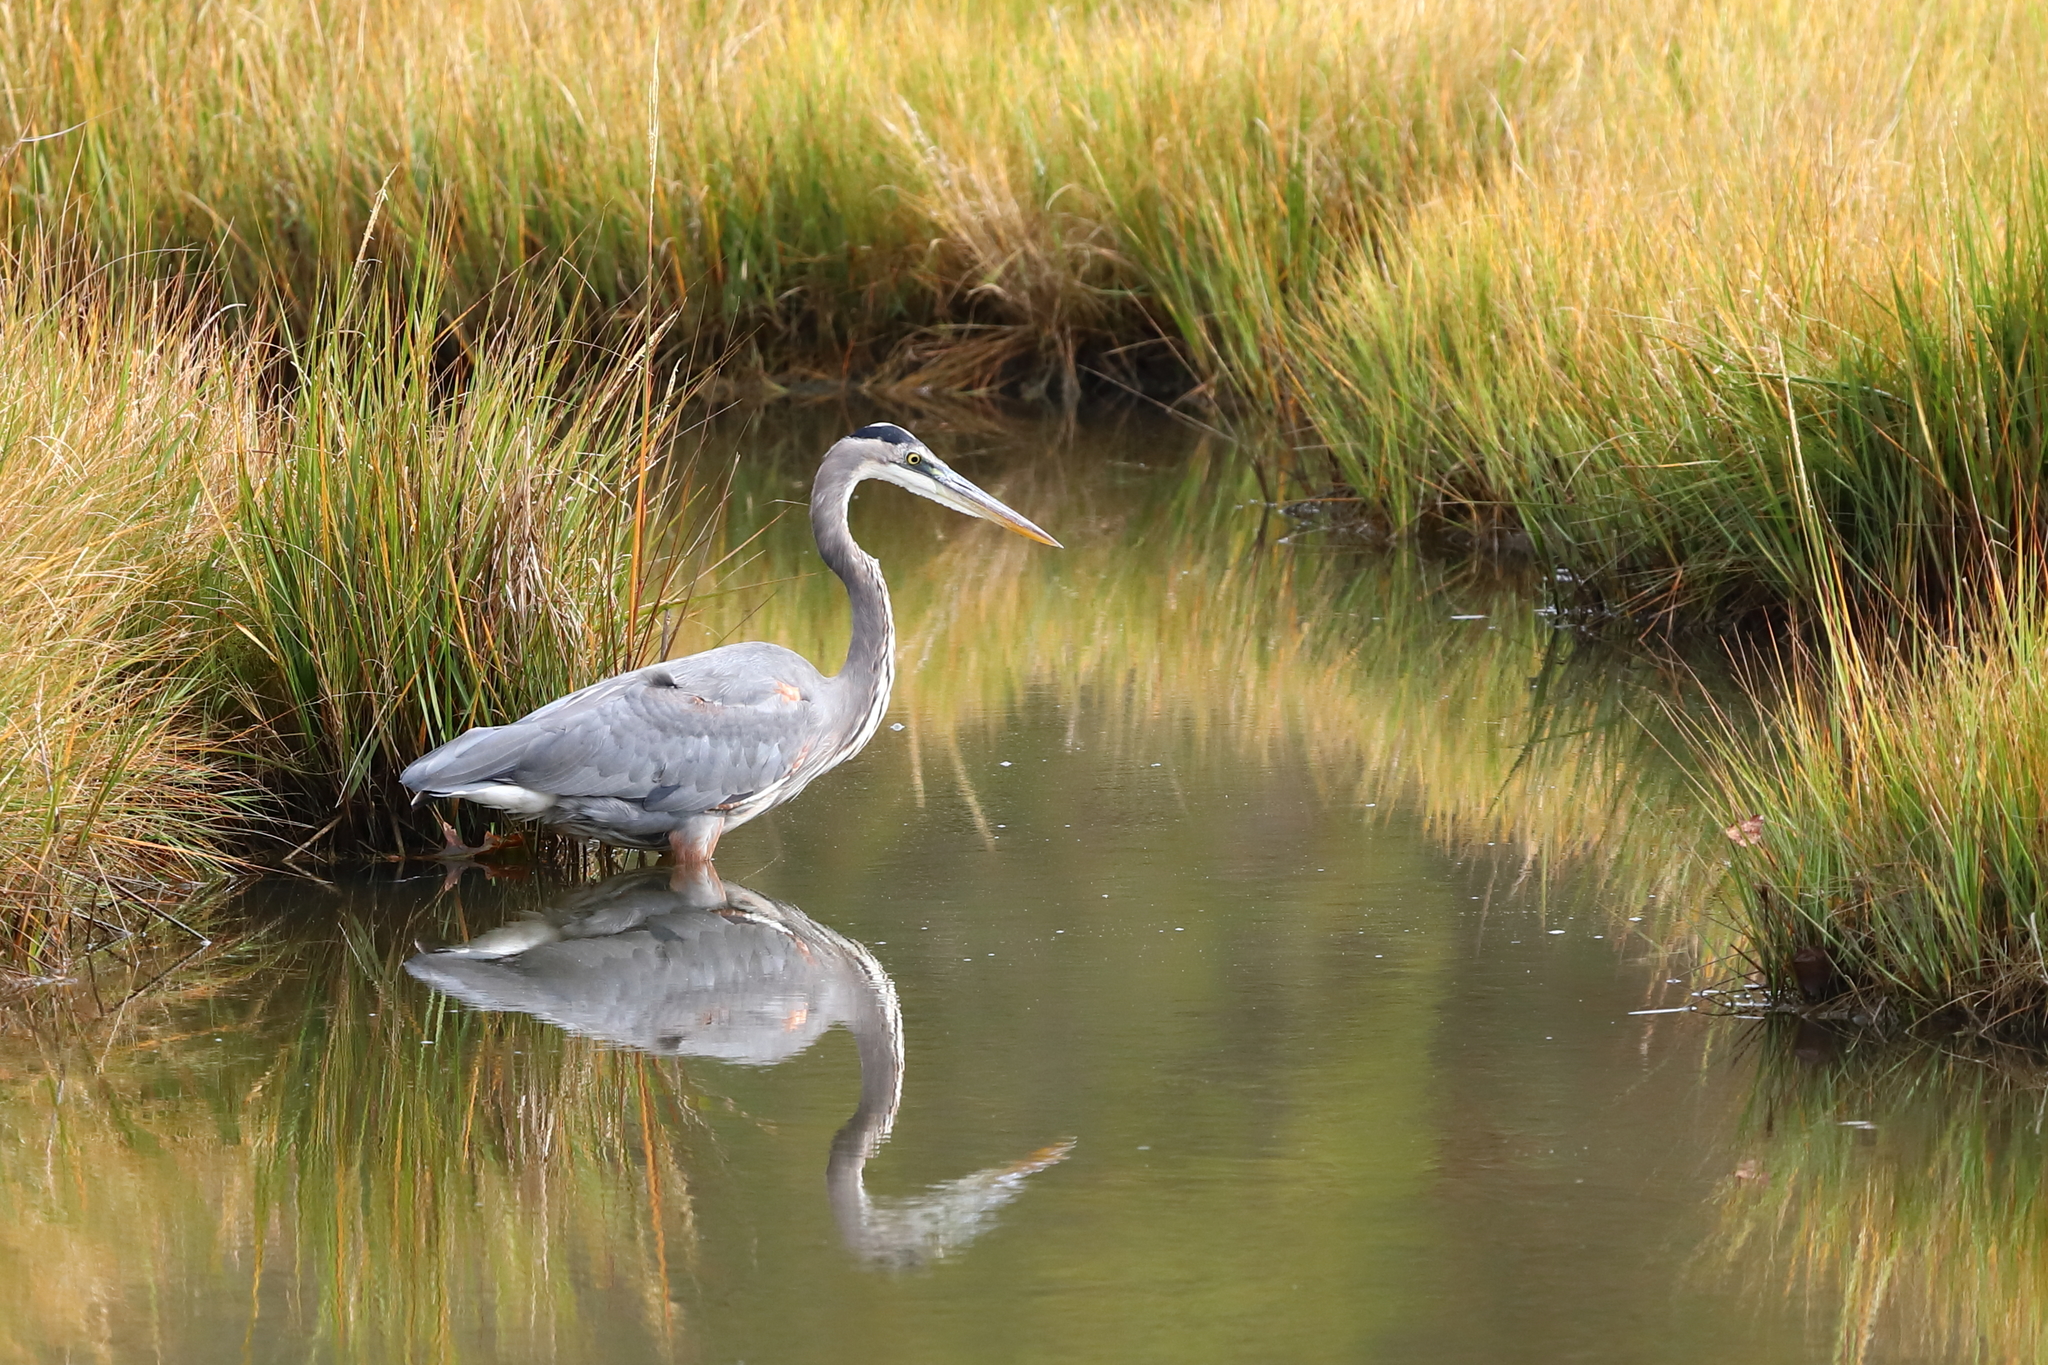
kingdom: Animalia
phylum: Chordata
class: Aves
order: Pelecaniformes
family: Ardeidae
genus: Ardea
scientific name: Ardea herodias
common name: Great blue heron
